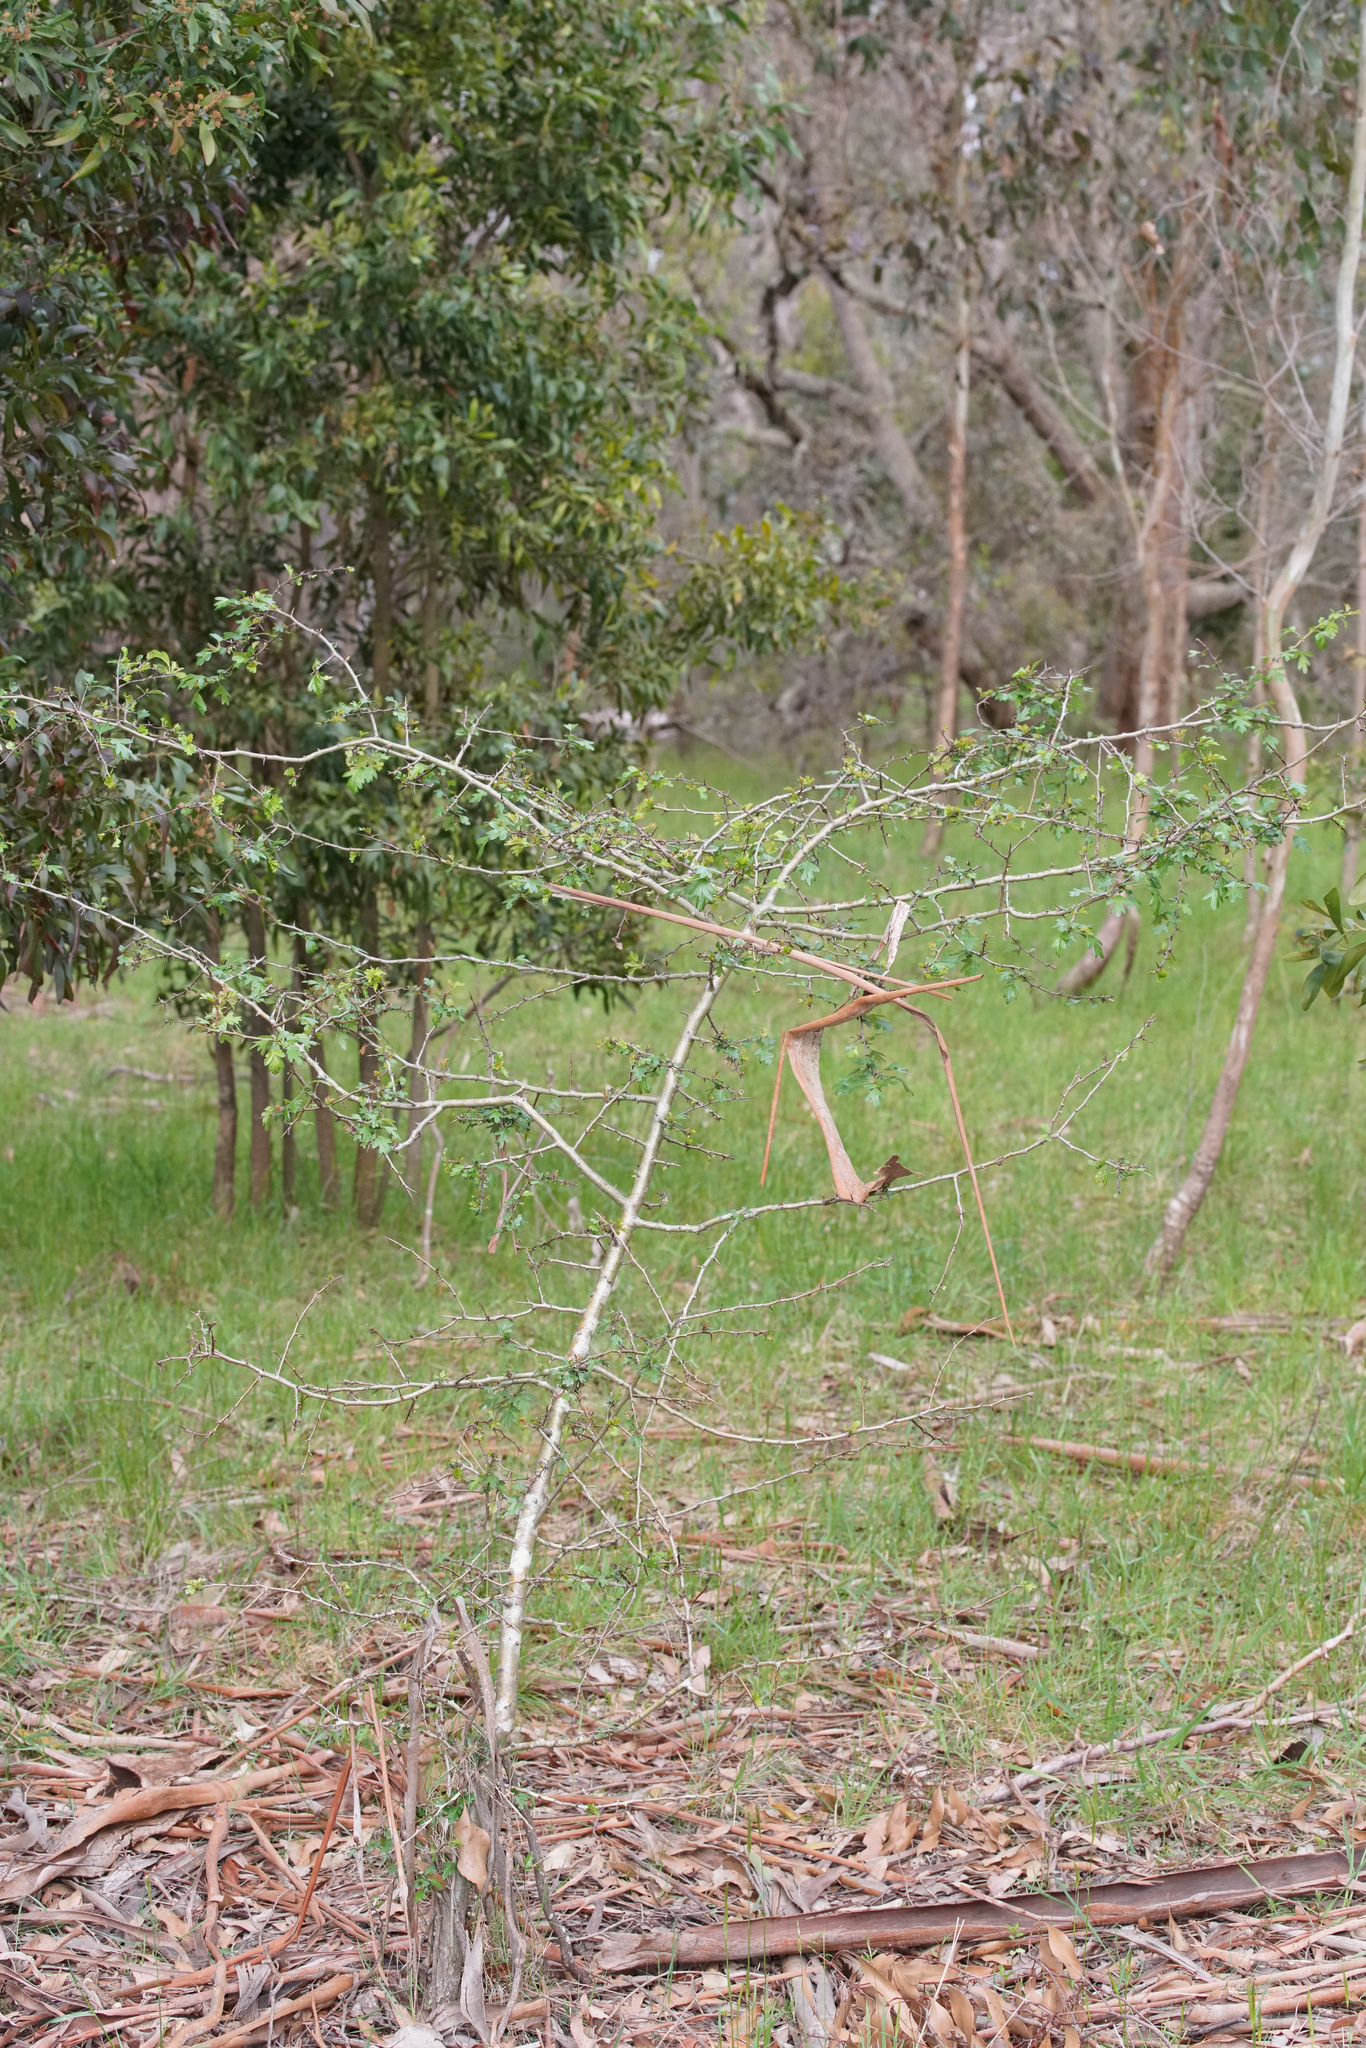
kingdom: Plantae
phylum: Tracheophyta
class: Magnoliopsida
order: Rosales
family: Rosaceae
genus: Crataegus
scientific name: Crataegus monogyna
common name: Hawthorn
